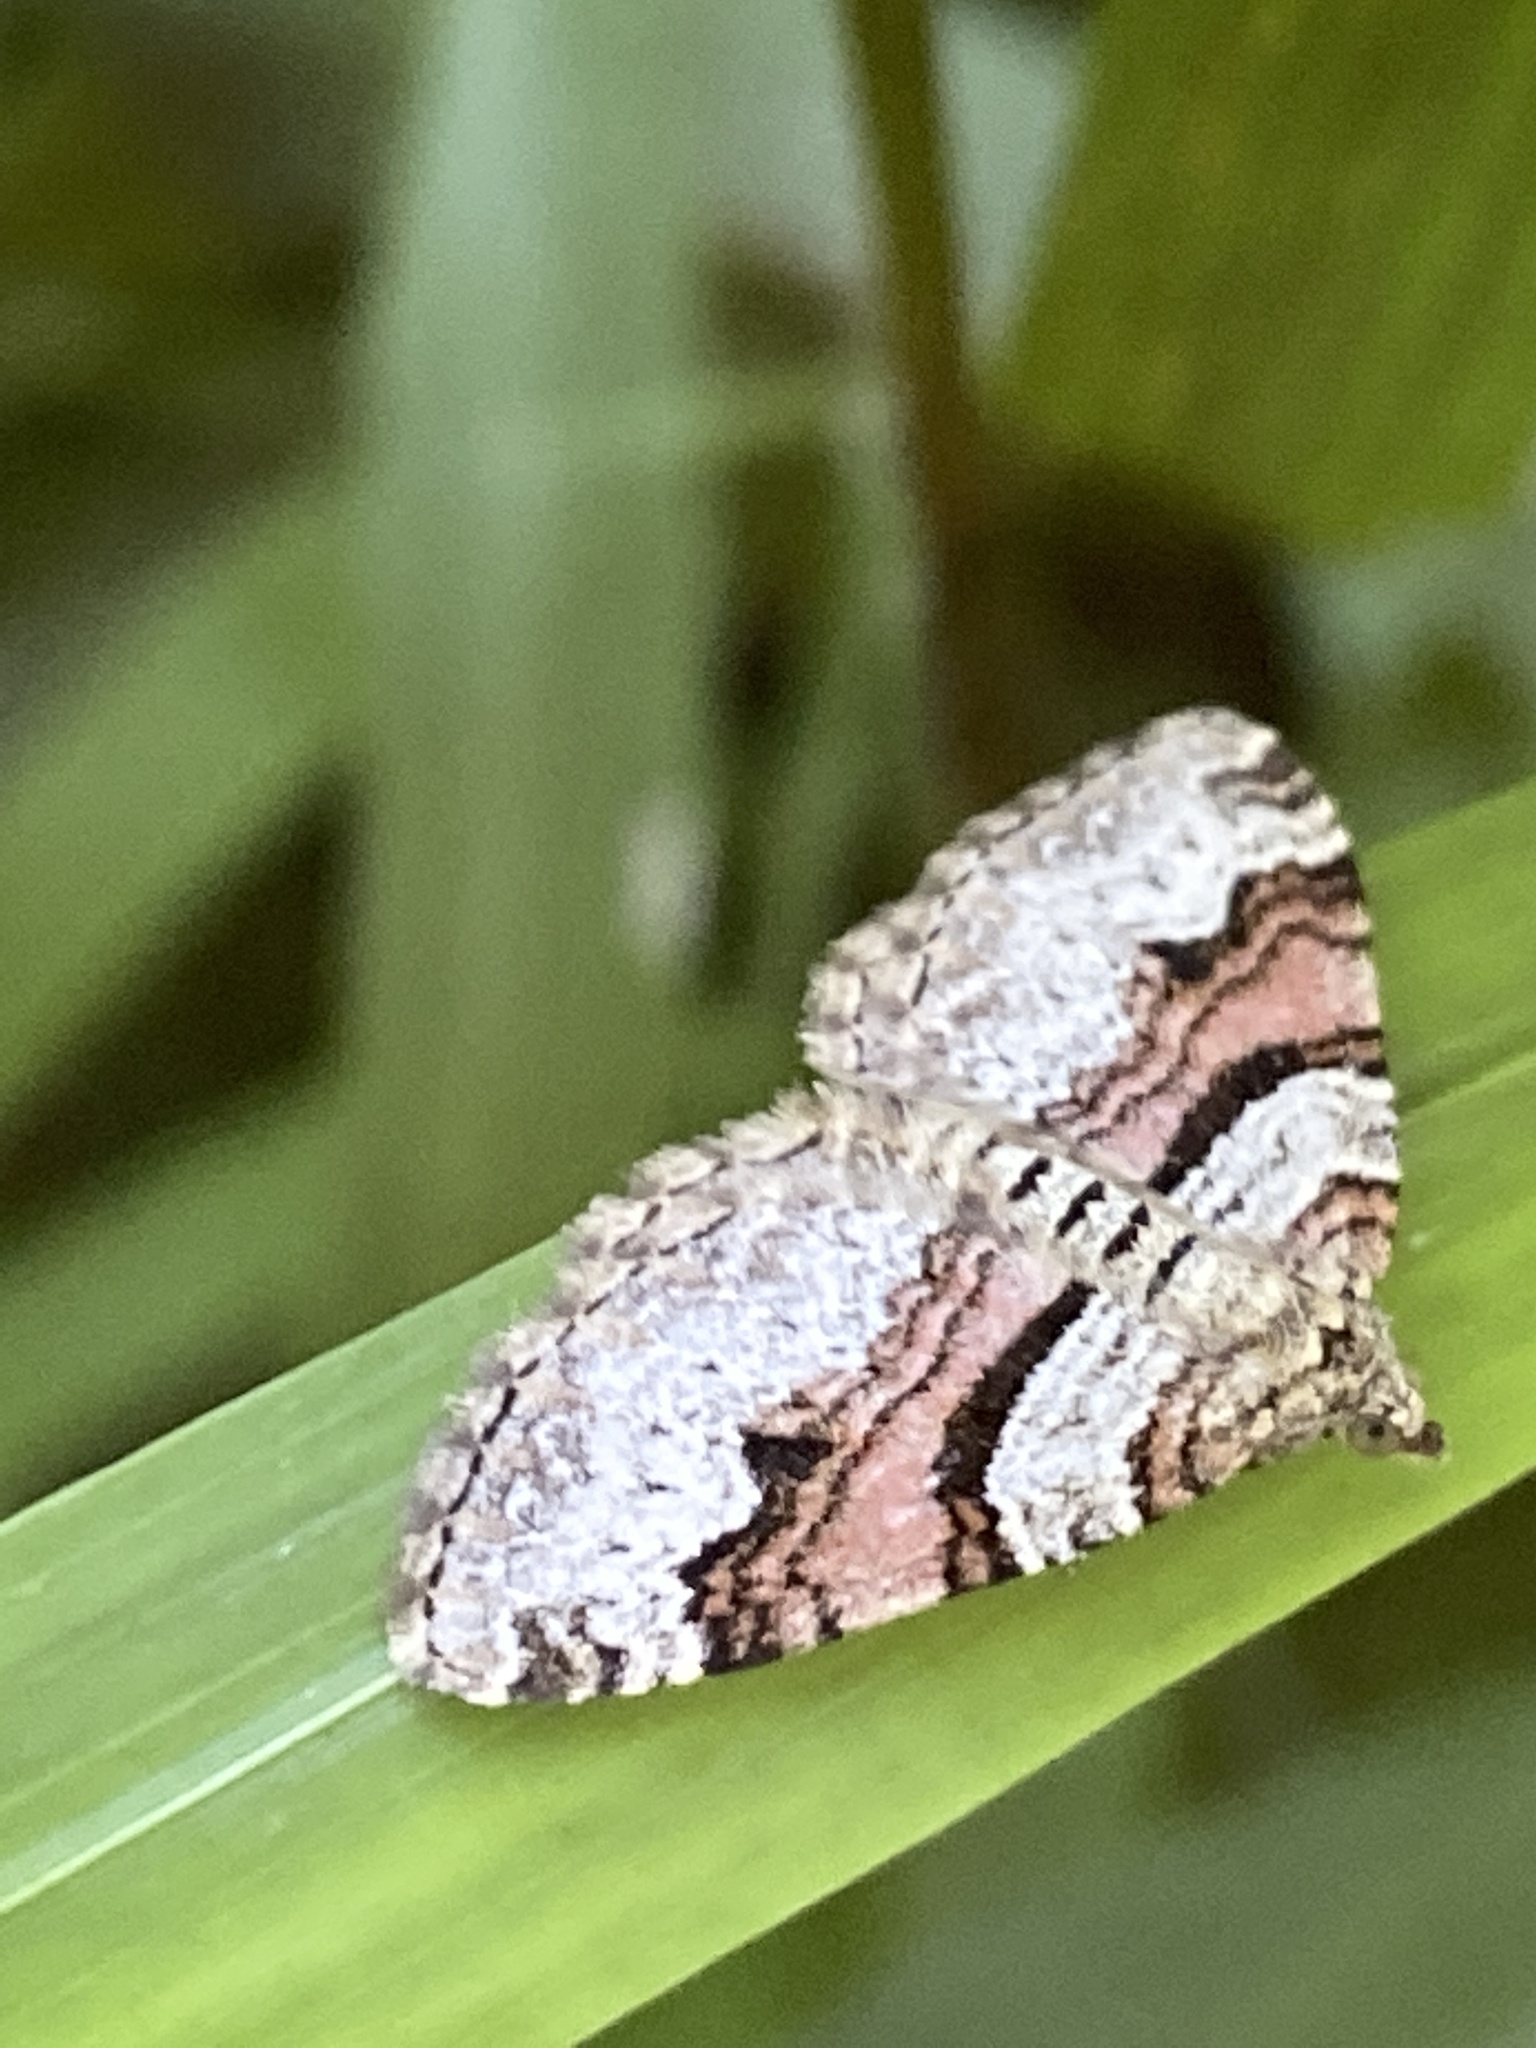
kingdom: Animalia
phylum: Arthropoda
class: Insecta
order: Lepidoptera
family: Geometridae
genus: Xanthorhoe
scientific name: Xanthorhoe designata
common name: Flame carpet
